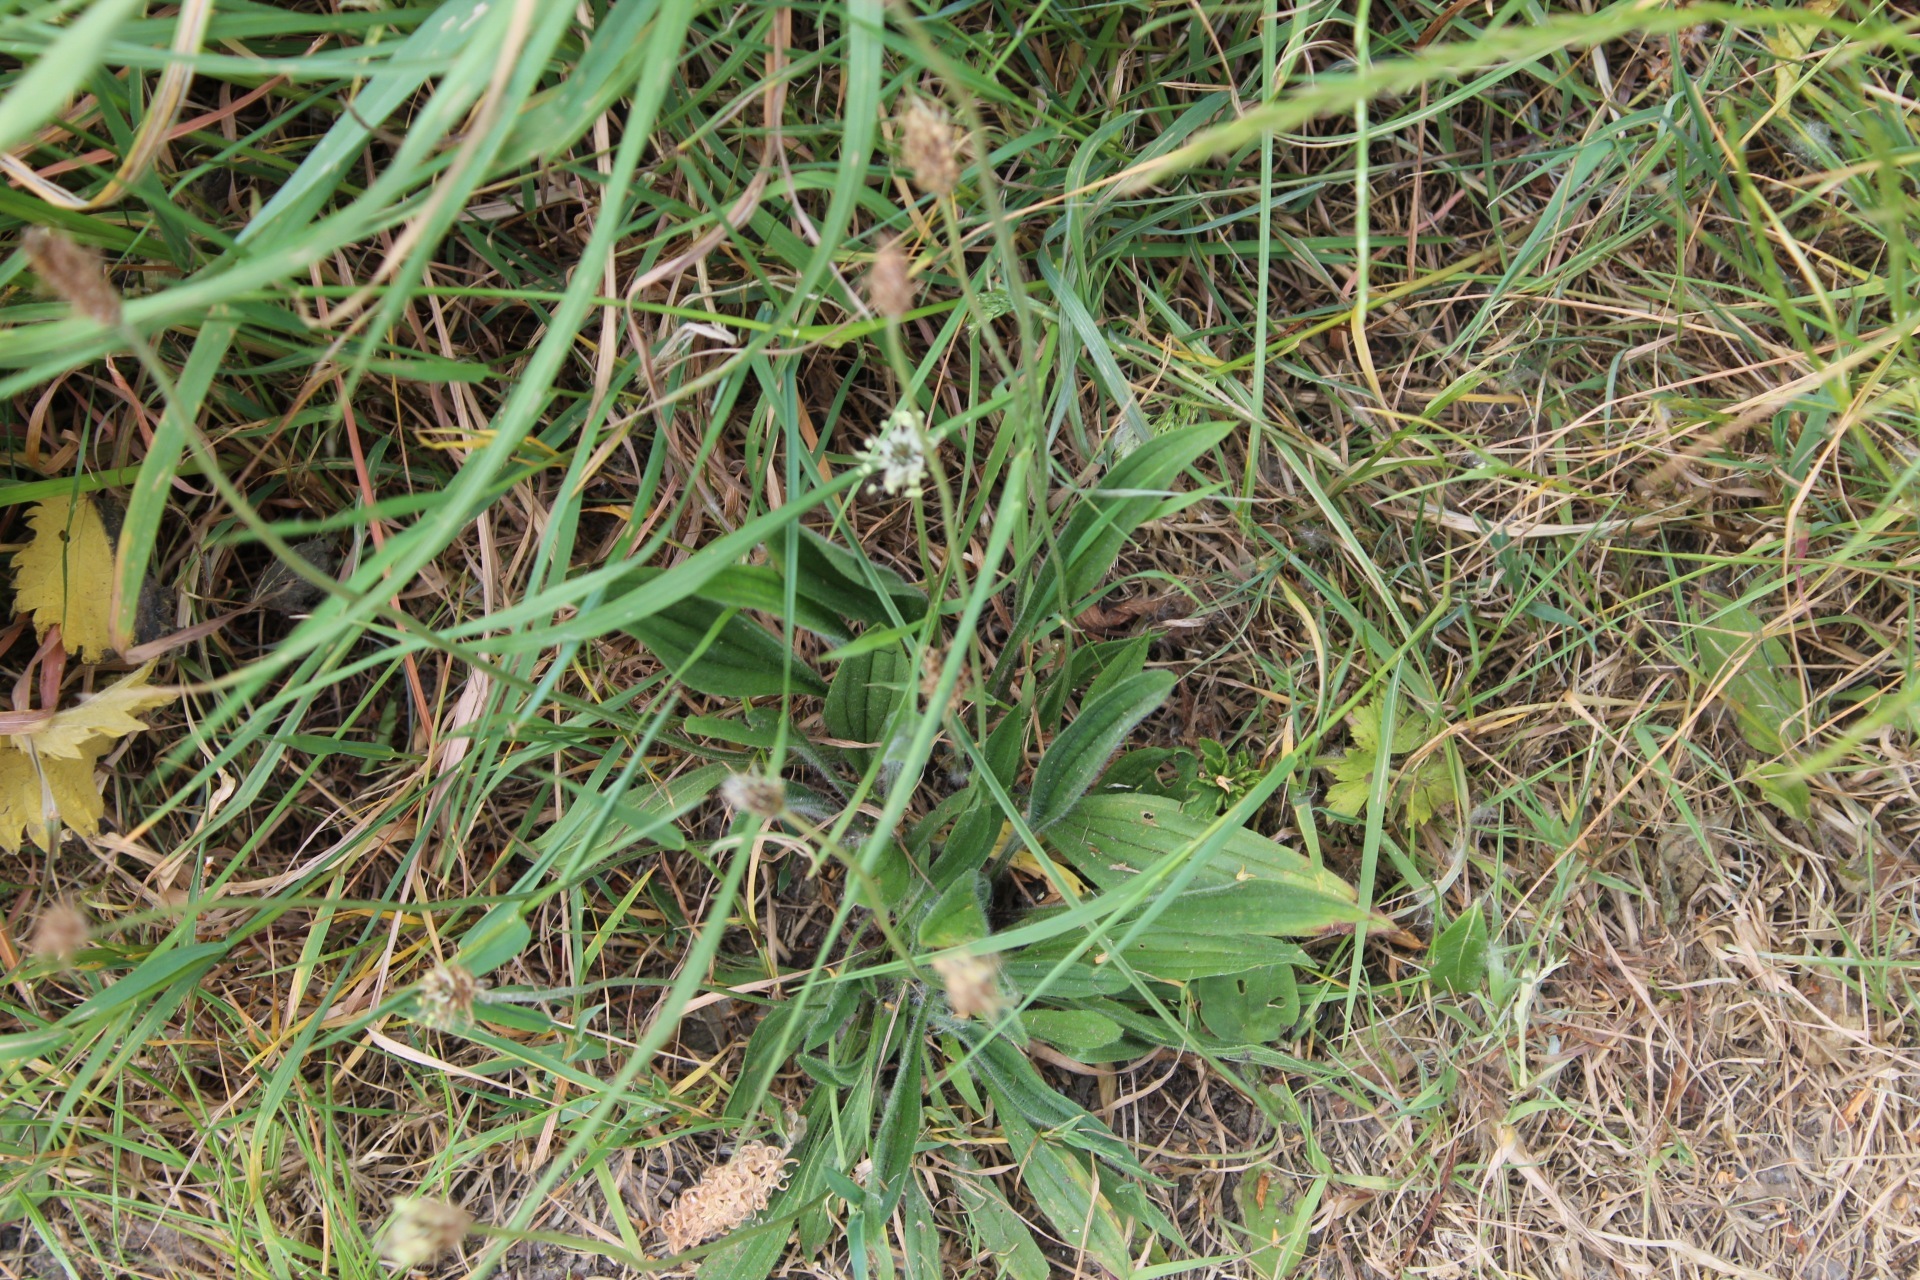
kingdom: Plantae
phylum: Tracheophyta
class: Magnoliopsida
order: Lamiales
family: Plantaginaceae
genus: Plantago
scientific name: Plantago lanceolata
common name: Ribwort plantain
